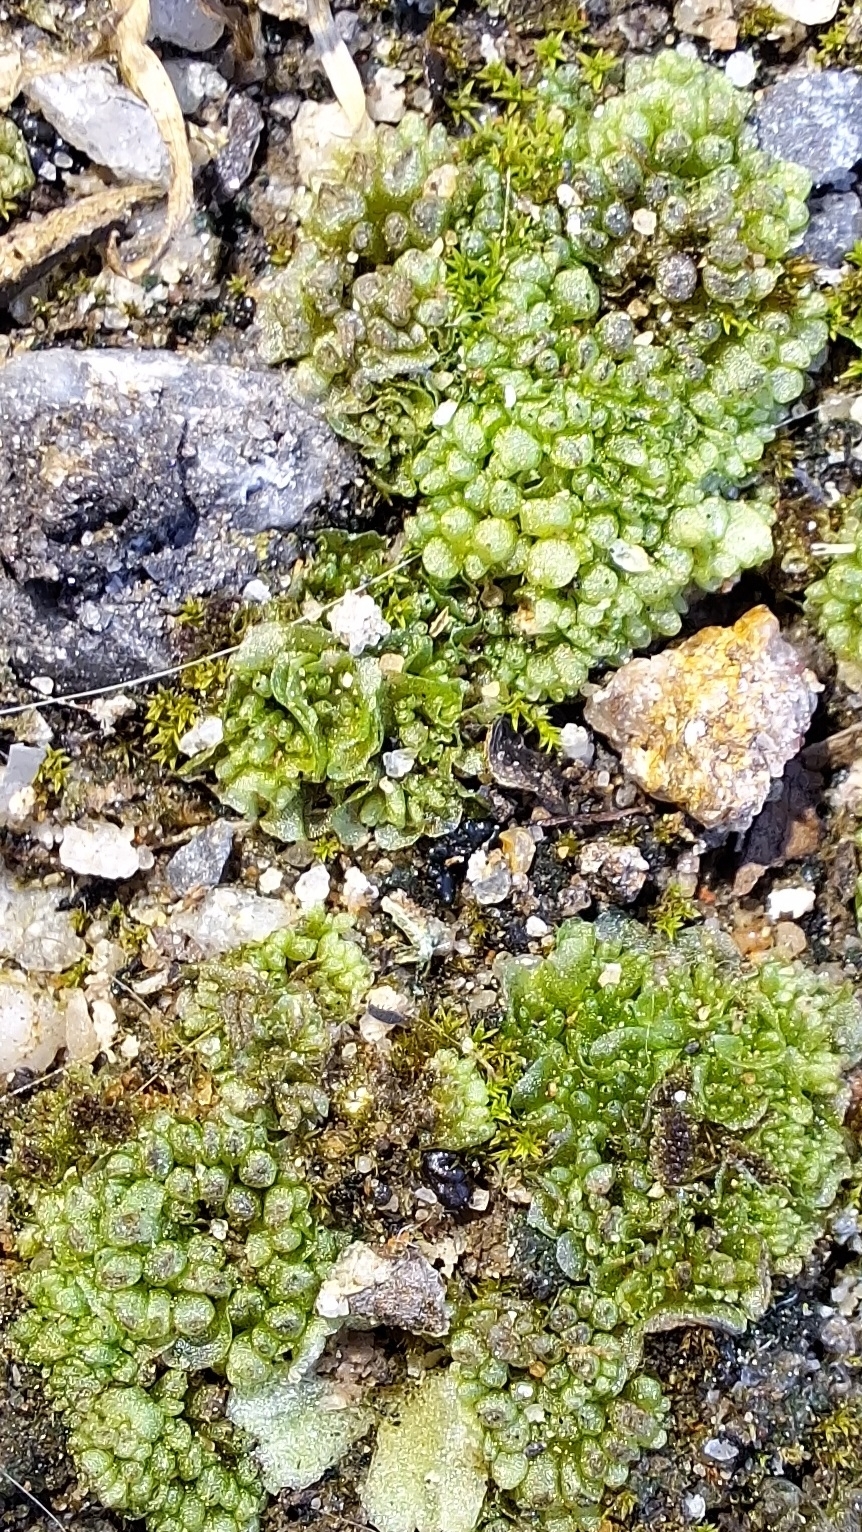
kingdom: Plantae
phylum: Marchantiophyta
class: Marchantiopsida
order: Sphaerocarpales
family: Sphaerocarpaceae
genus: Sphaerocarpos
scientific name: Sphaerocarpos texanus
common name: Texas balloonwort
